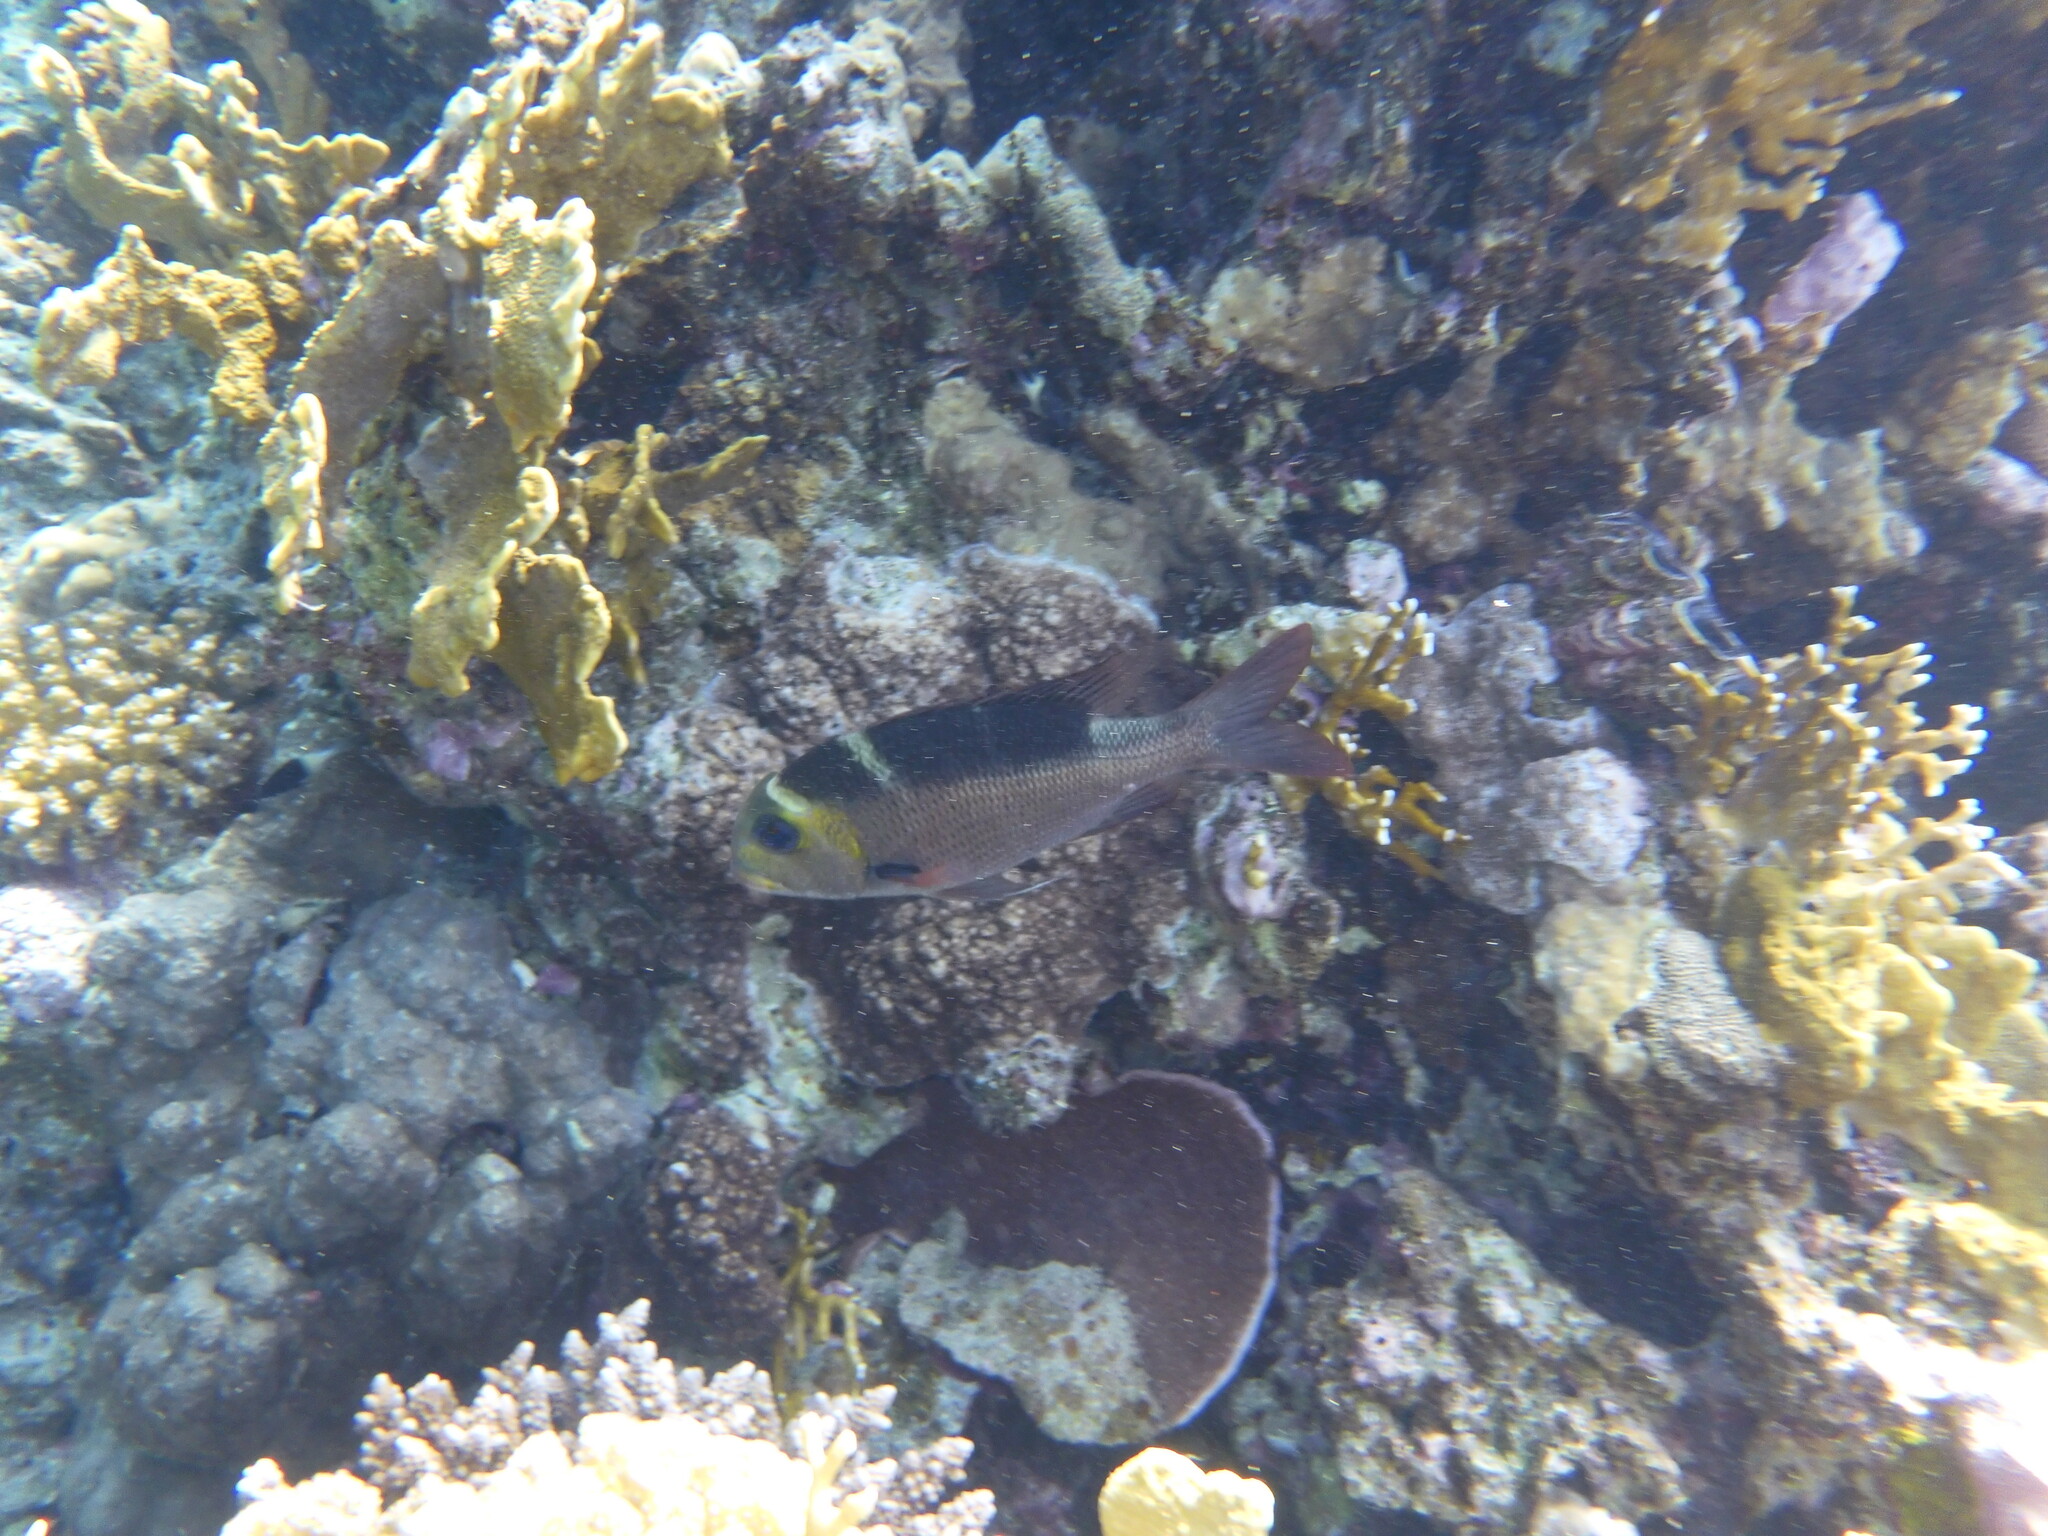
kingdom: Animalia
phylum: Chordata
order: Perciformes
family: Lethrinidae
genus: Monotaxis
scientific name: Monotaxis grandoculis
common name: Bigeye emperor
